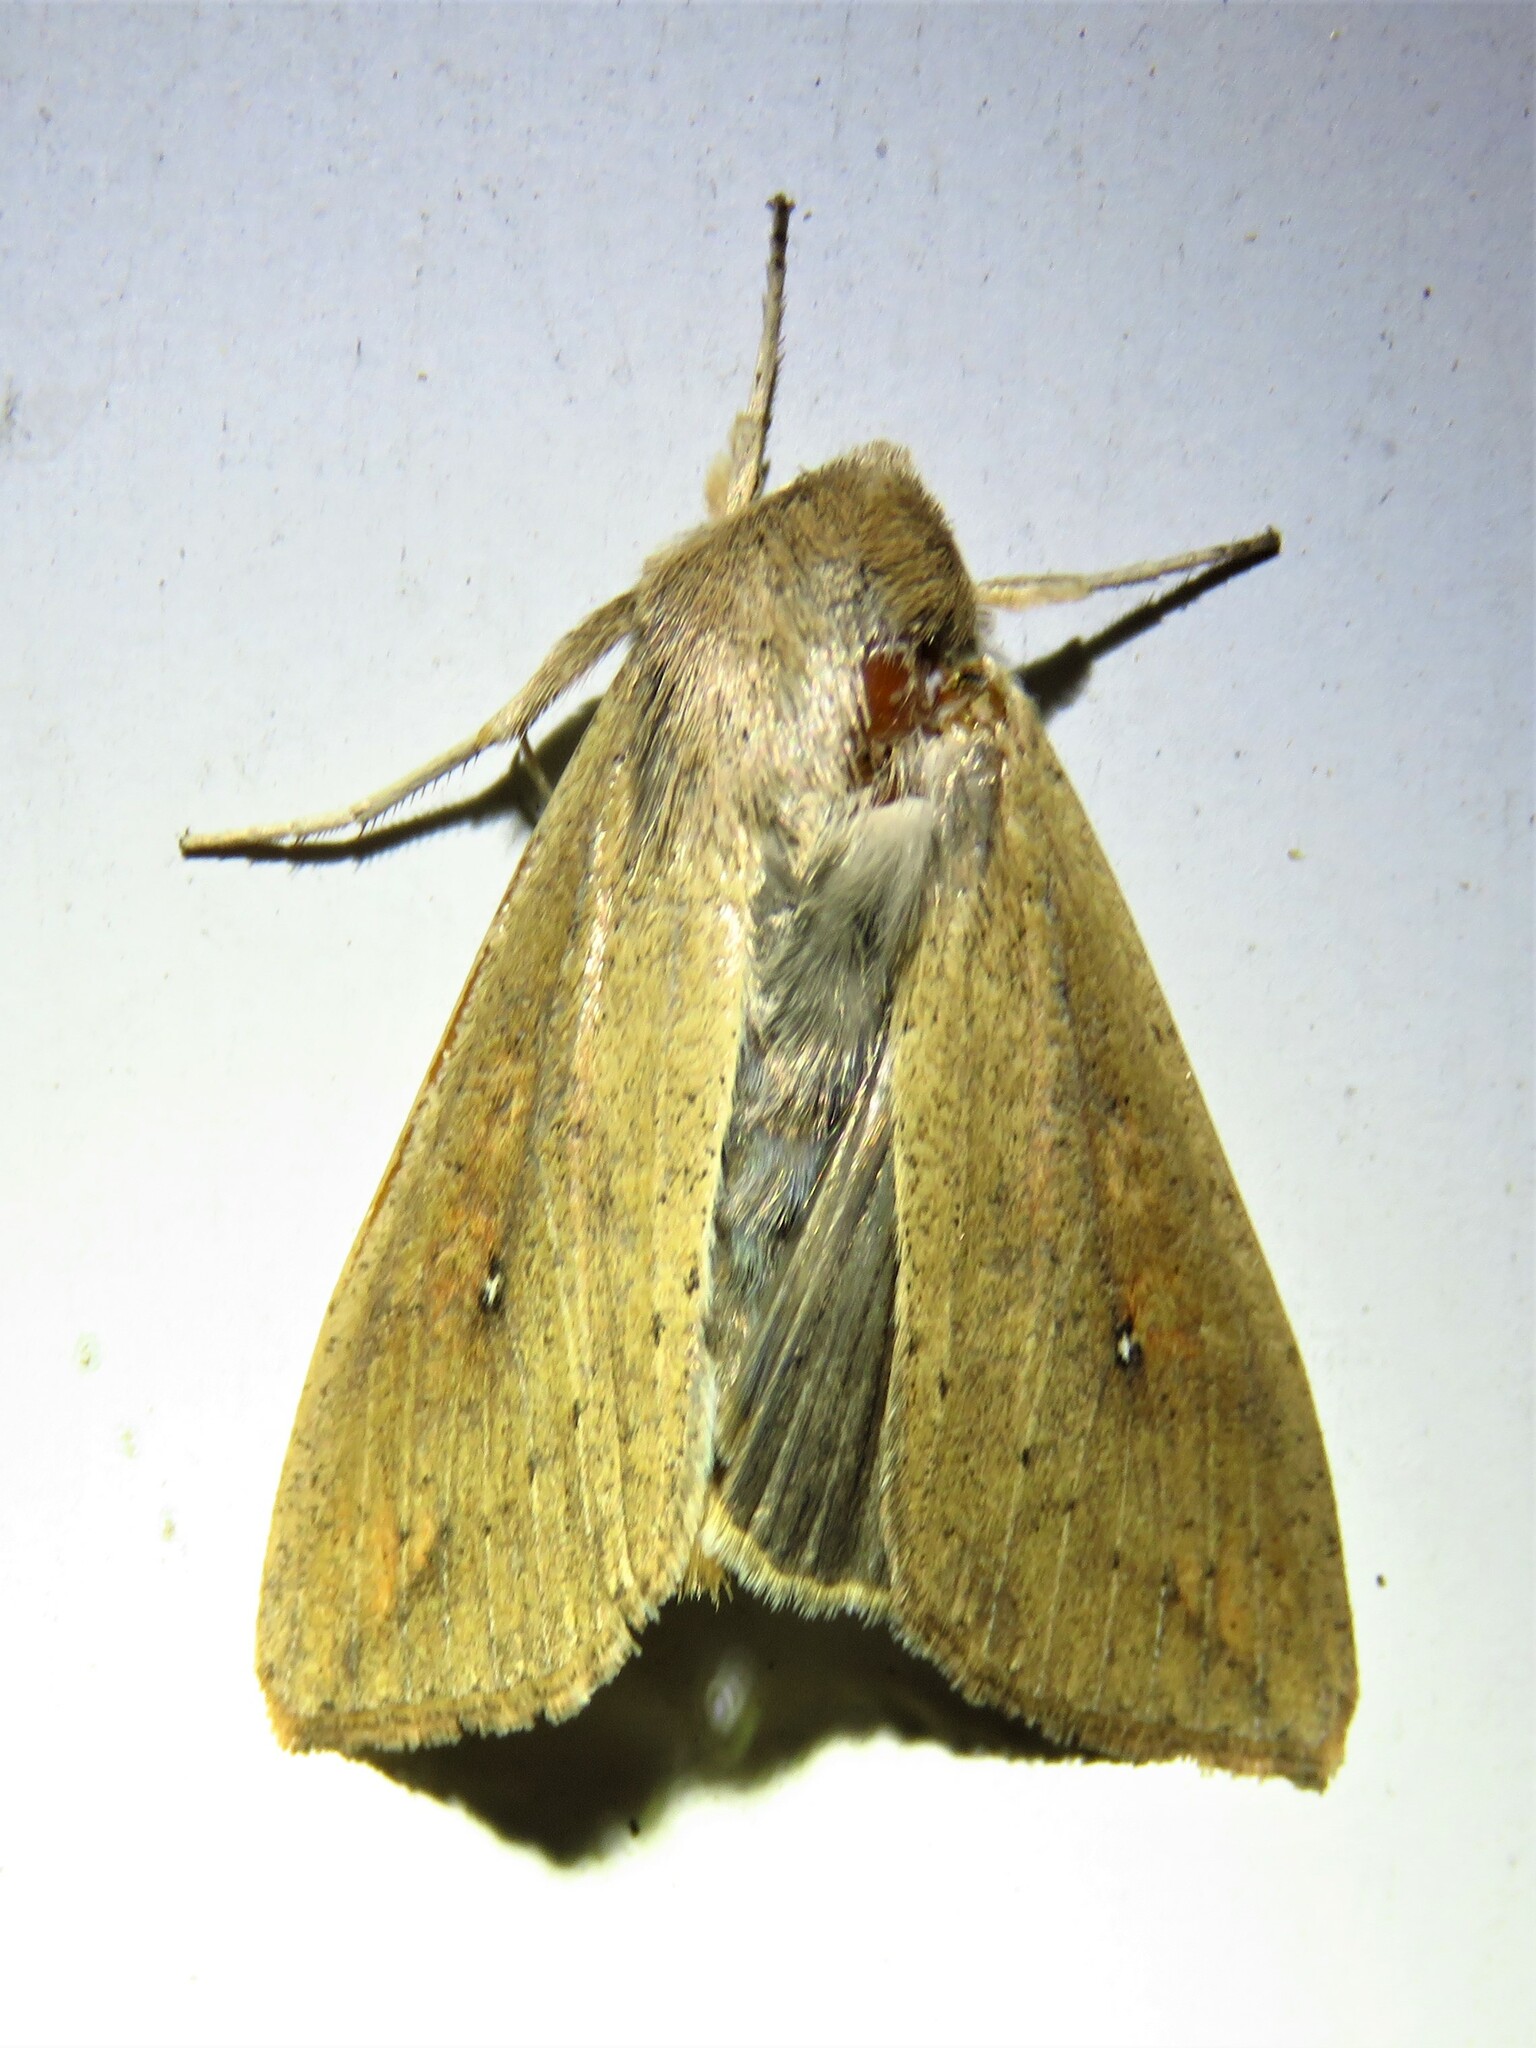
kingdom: Animalia
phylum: Arthropoda
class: Insecta
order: Lepidoptera
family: Noctuidae
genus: Mythimna
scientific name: Mythimna unipuncta
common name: White-speck
